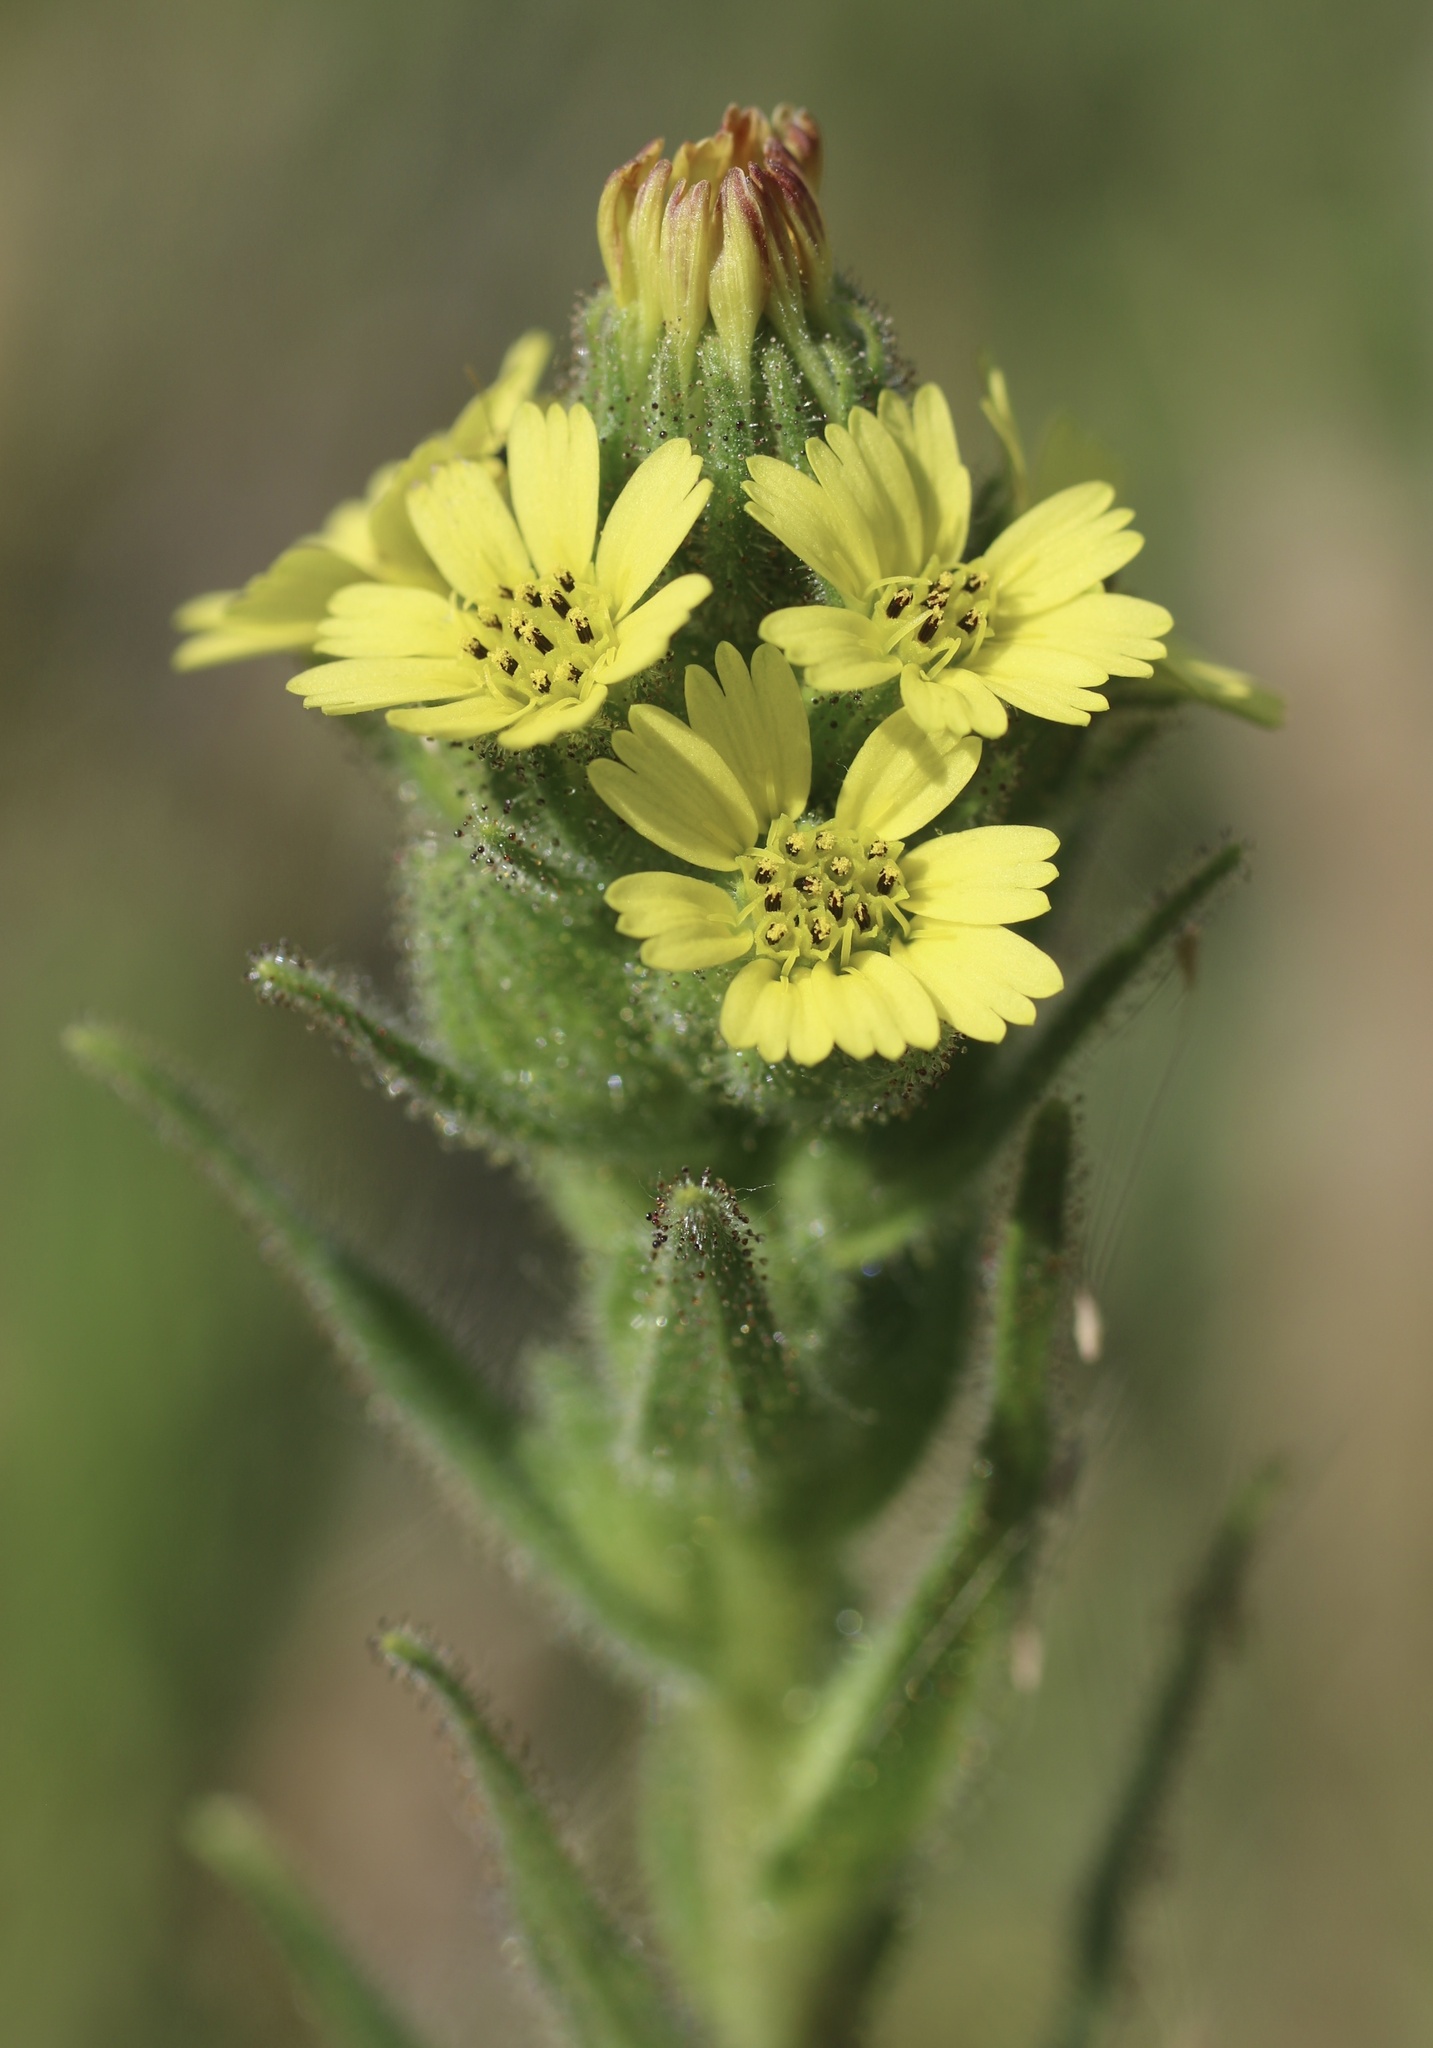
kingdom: Plantae
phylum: Tracheophyta
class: Magnoliopsida
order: Asterales
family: Asteraceae
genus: Madia
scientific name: Madia sativa
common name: Coast tarweed
